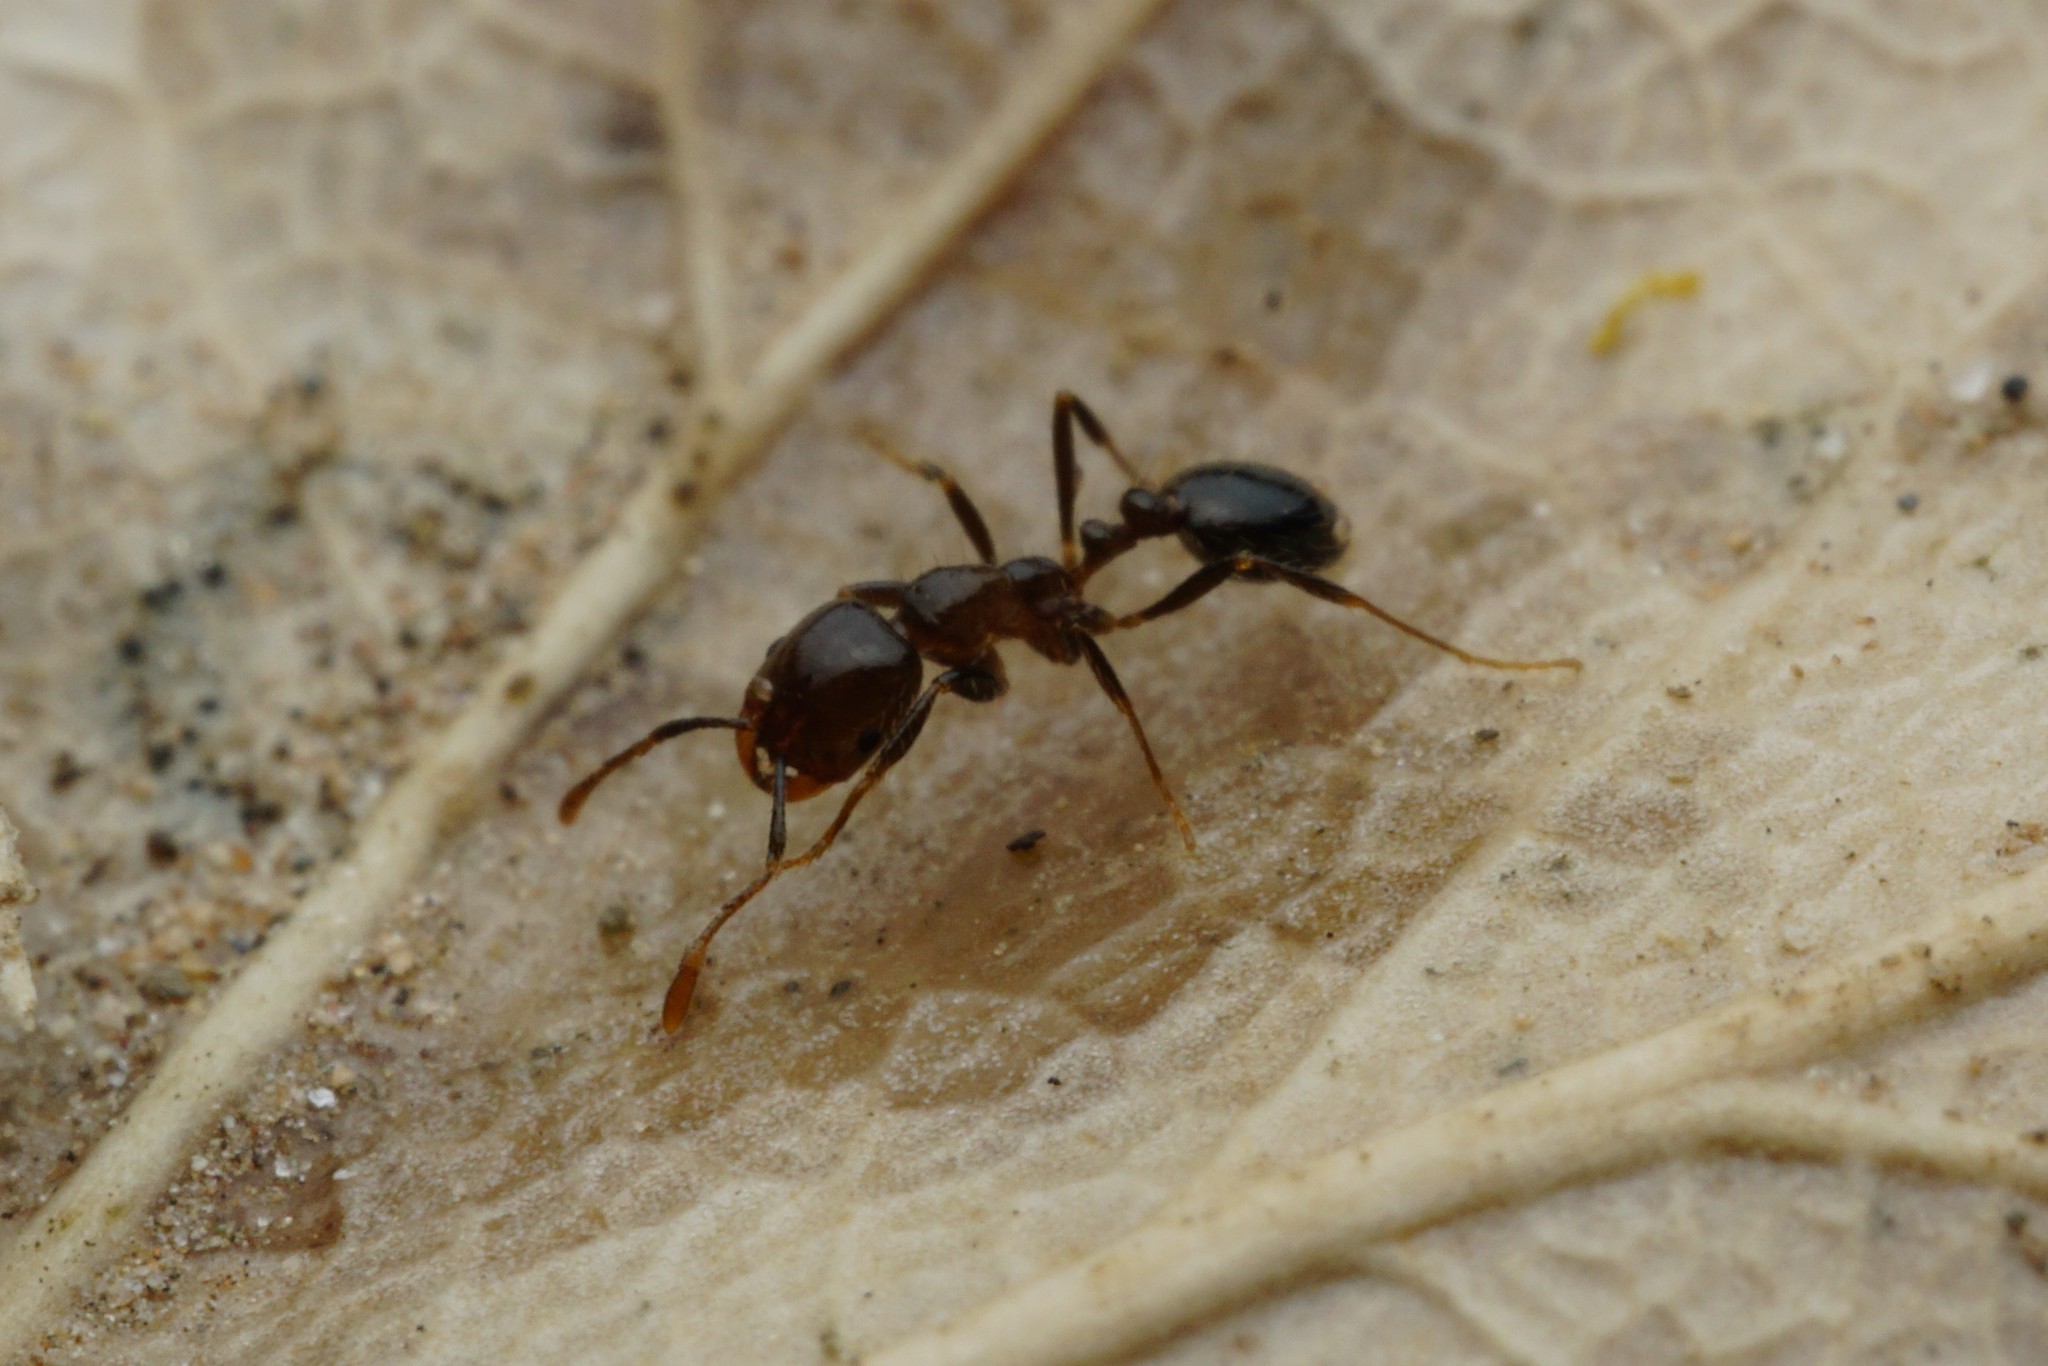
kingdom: Animalia
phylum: Arthropoda
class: Insecta
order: Hymenoptera
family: Formicidae
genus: Solenopsis
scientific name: Solenopsis xyloni
